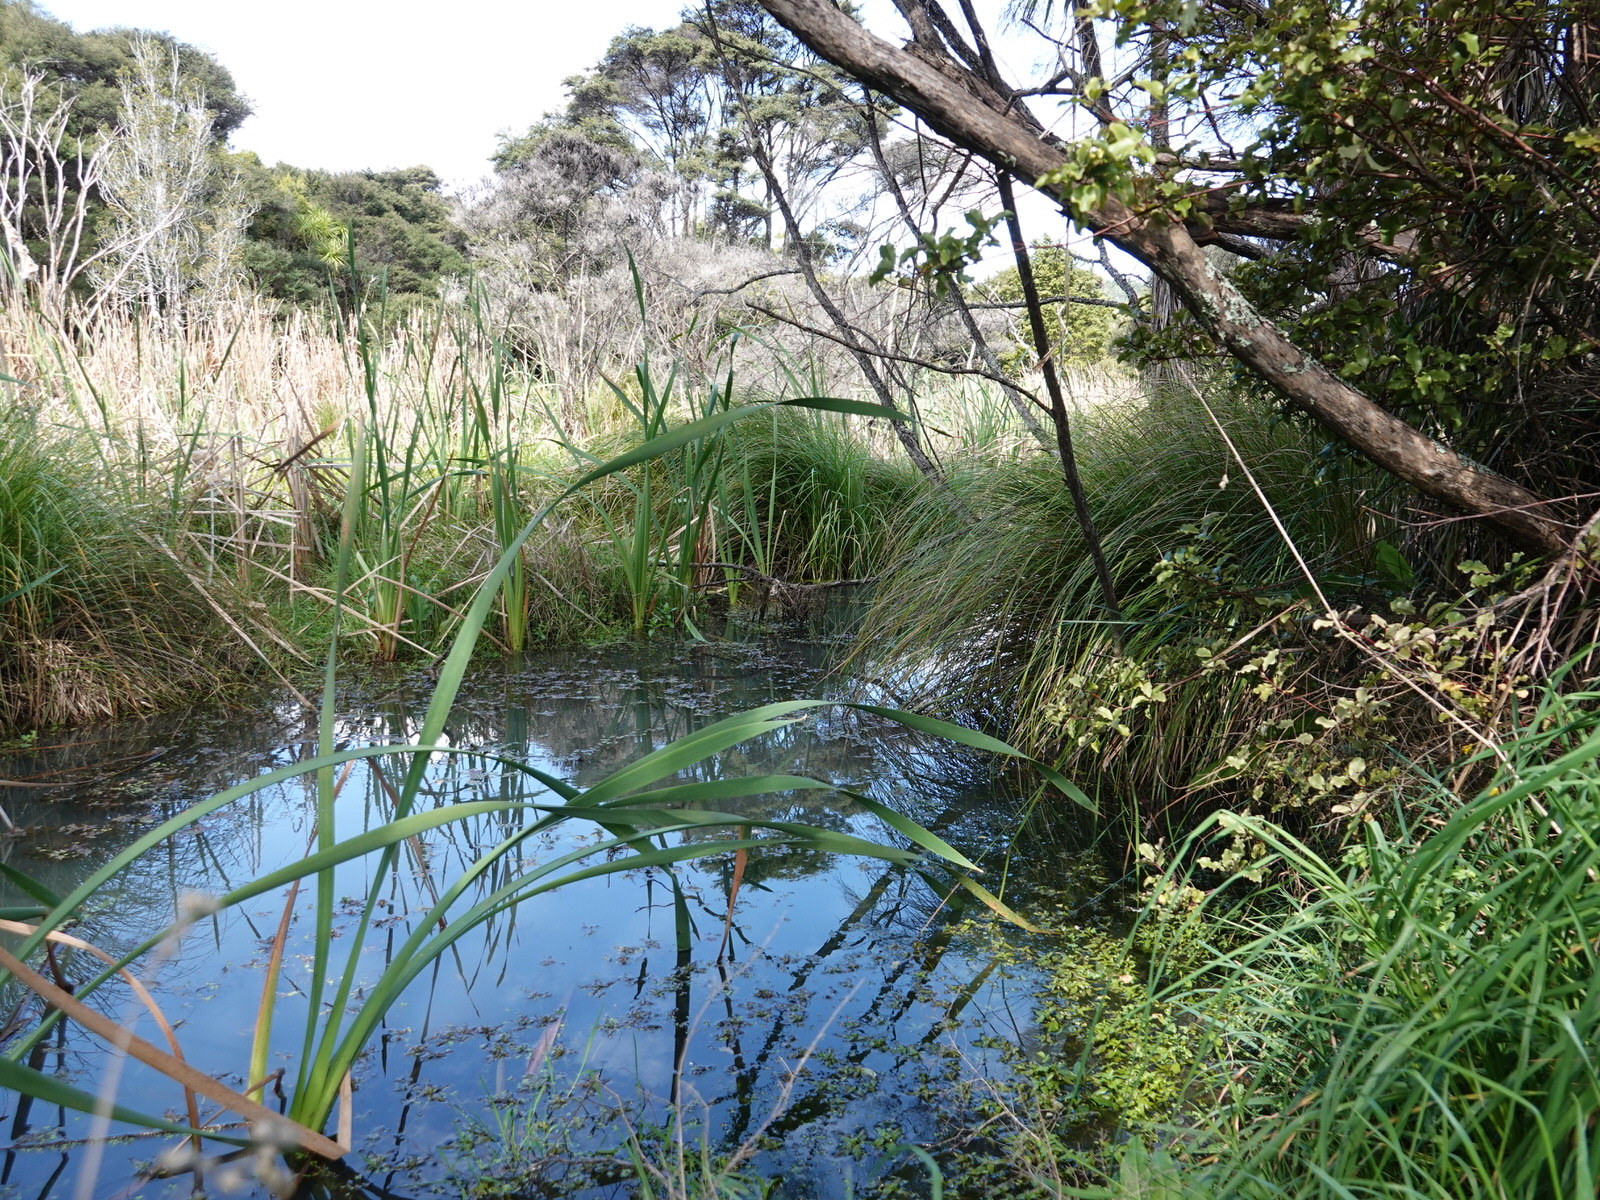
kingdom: Animalia
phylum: Chordata
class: Aves
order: Gruiformes
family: Rallidae
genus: Porzana
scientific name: Porzana tabuensis
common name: Spotless crake
